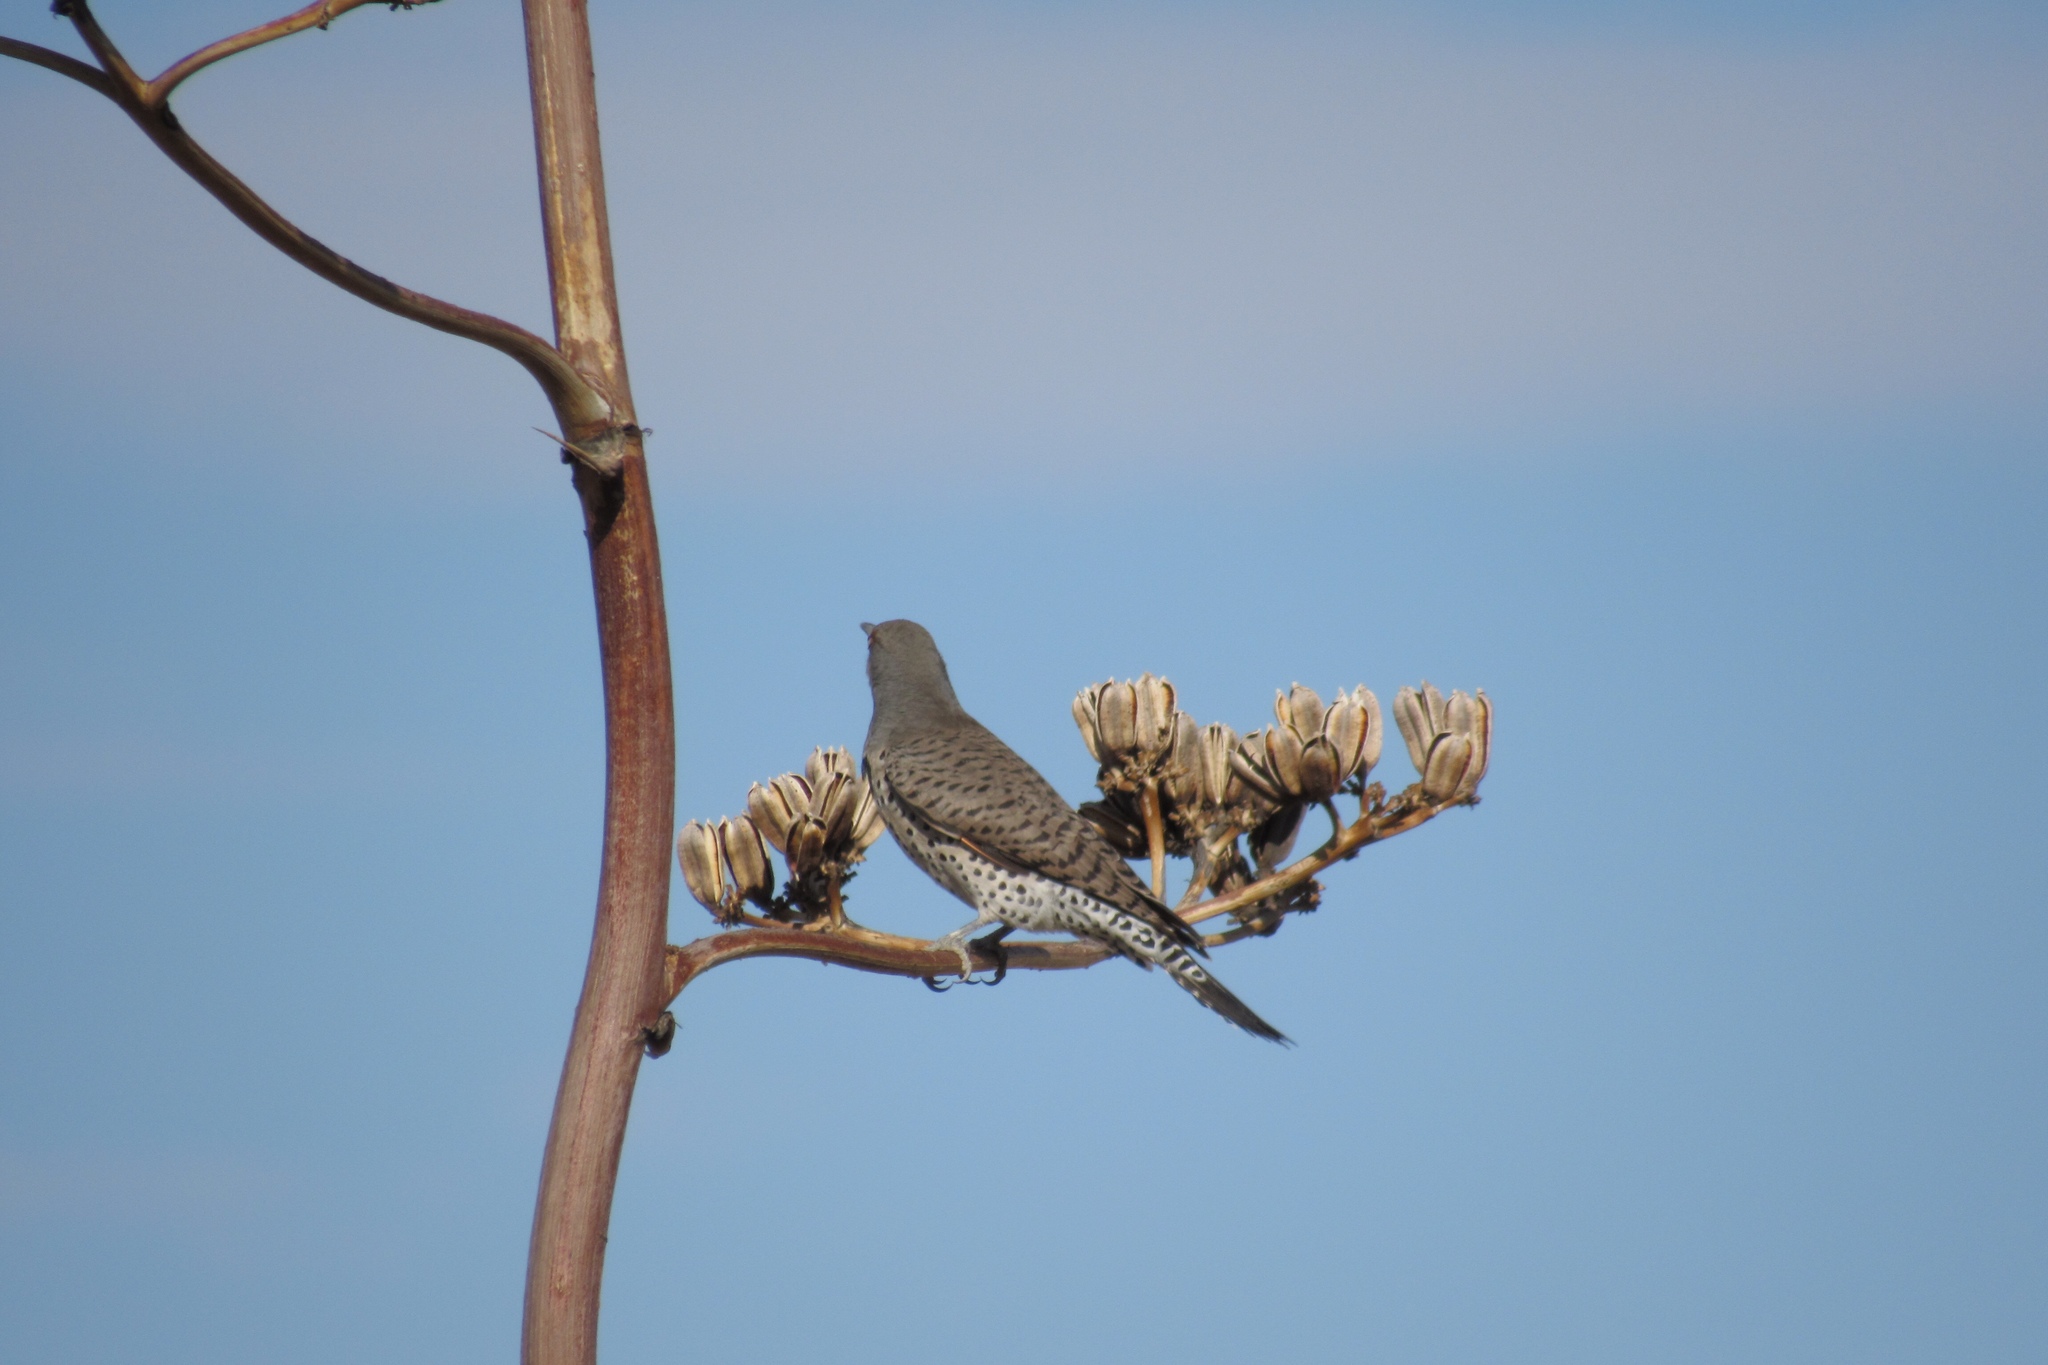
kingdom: Animalia
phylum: Chordata
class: Aves
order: Piciformes
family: Picidae
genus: Colaptes
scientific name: Colaptes auratus
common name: Northern flicker
